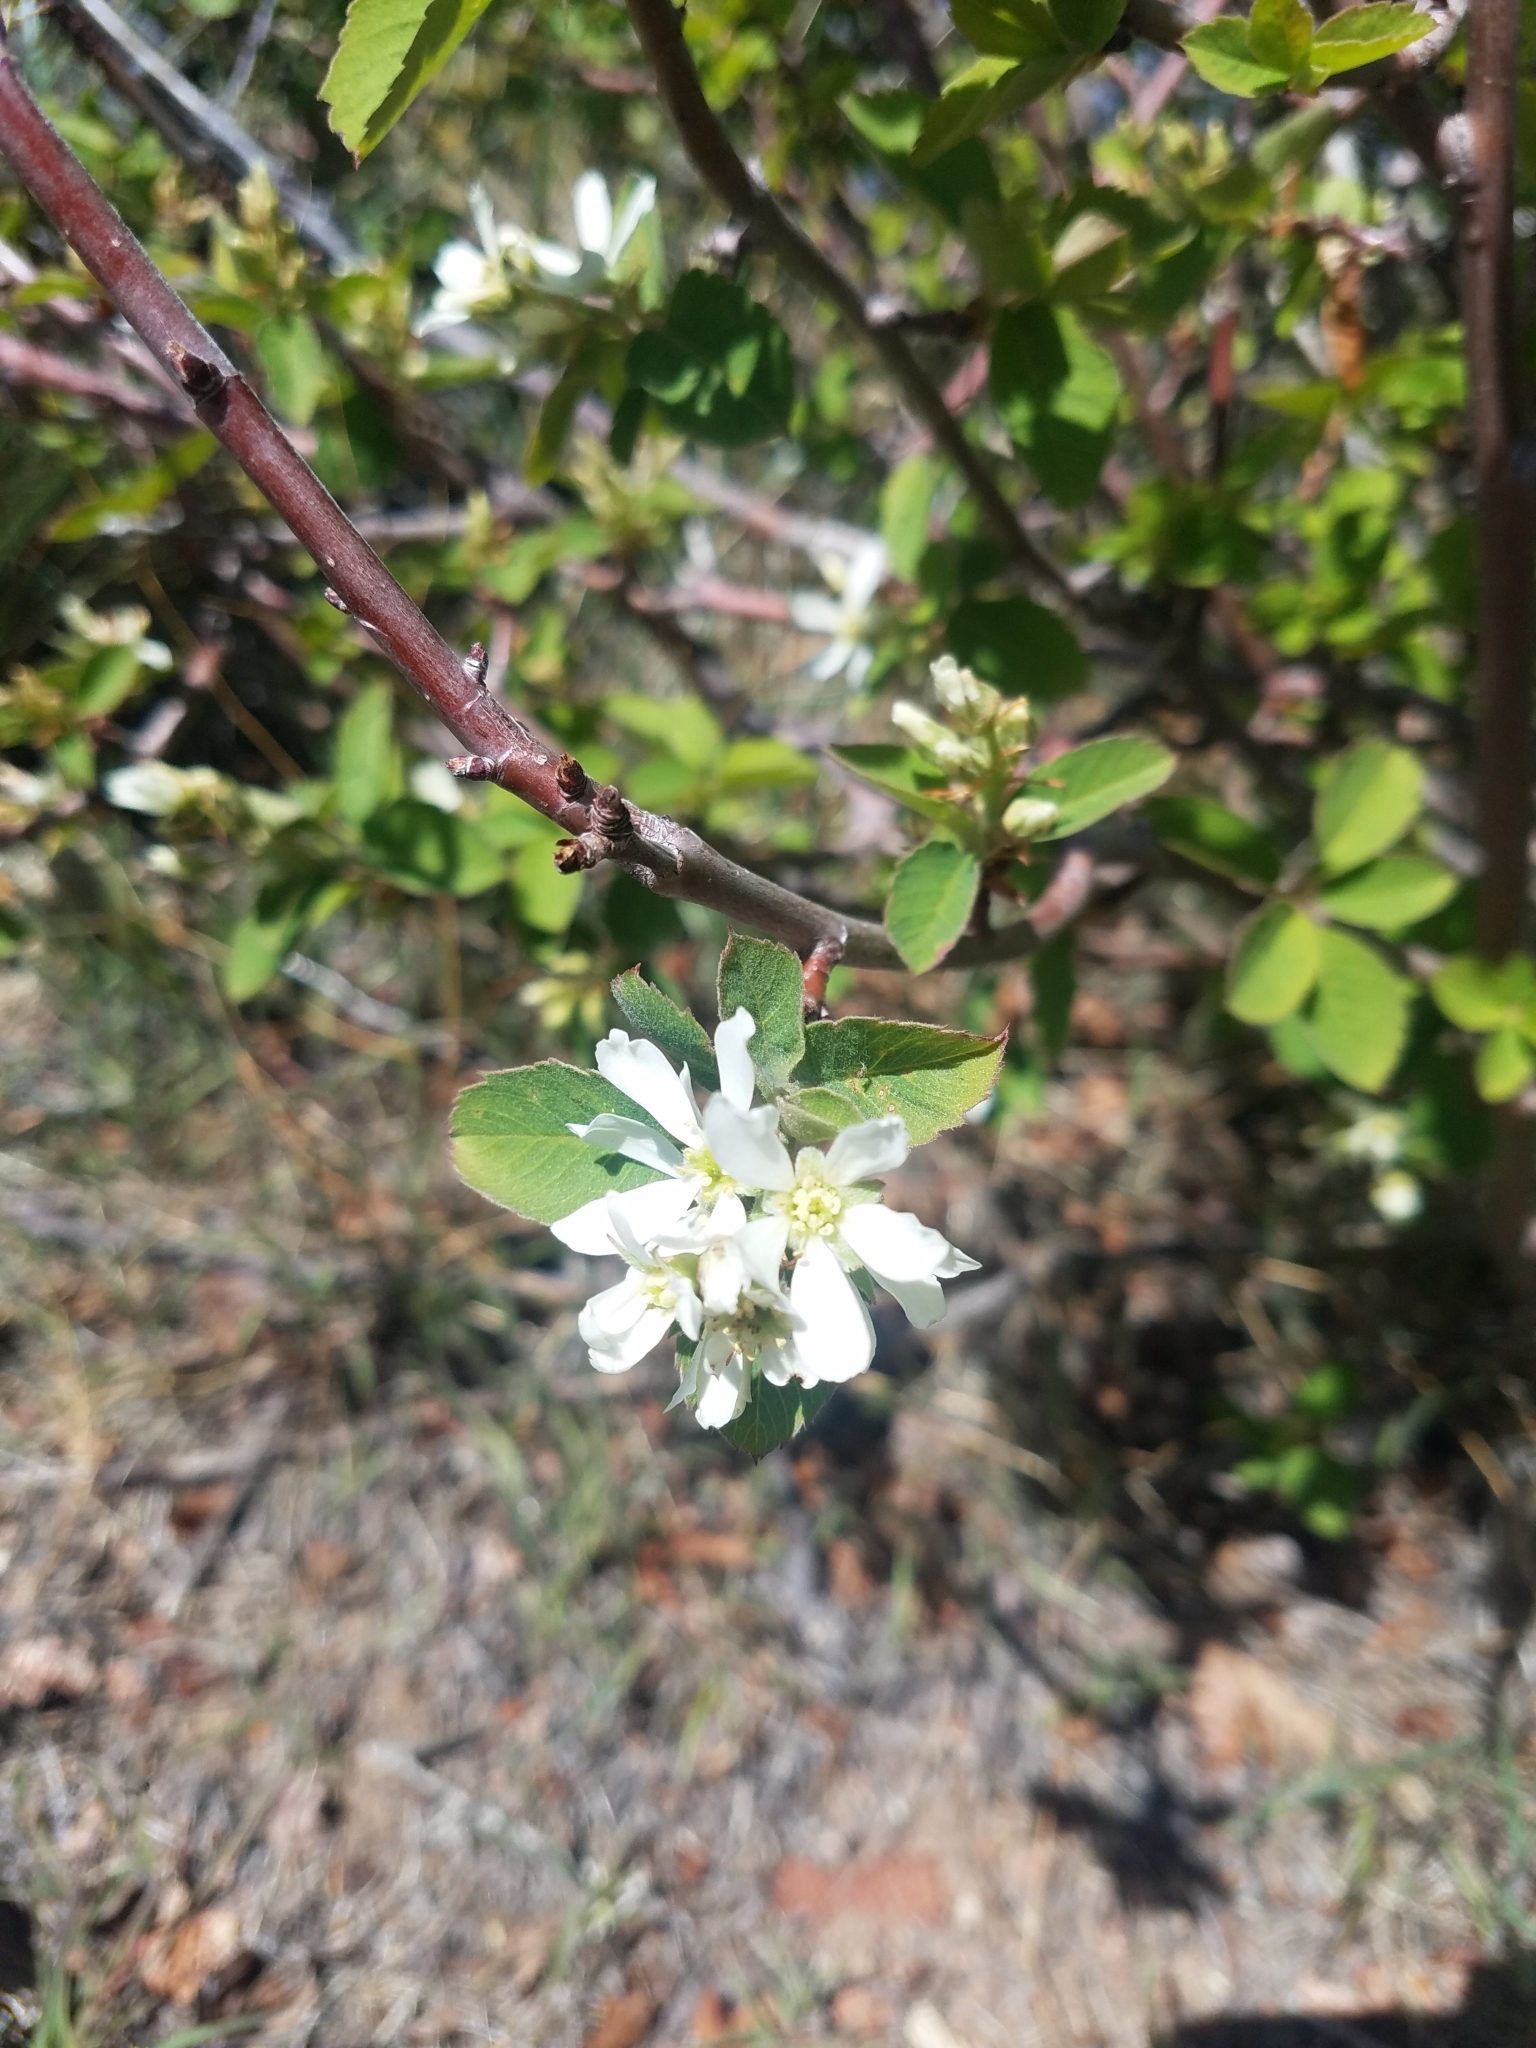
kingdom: Plantae
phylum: Tracheophyta
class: Magnoliopsida
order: Rosales
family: Rosaceae
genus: Amelanchier
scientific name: Amelanchier utahensis
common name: Utah serviceberry
